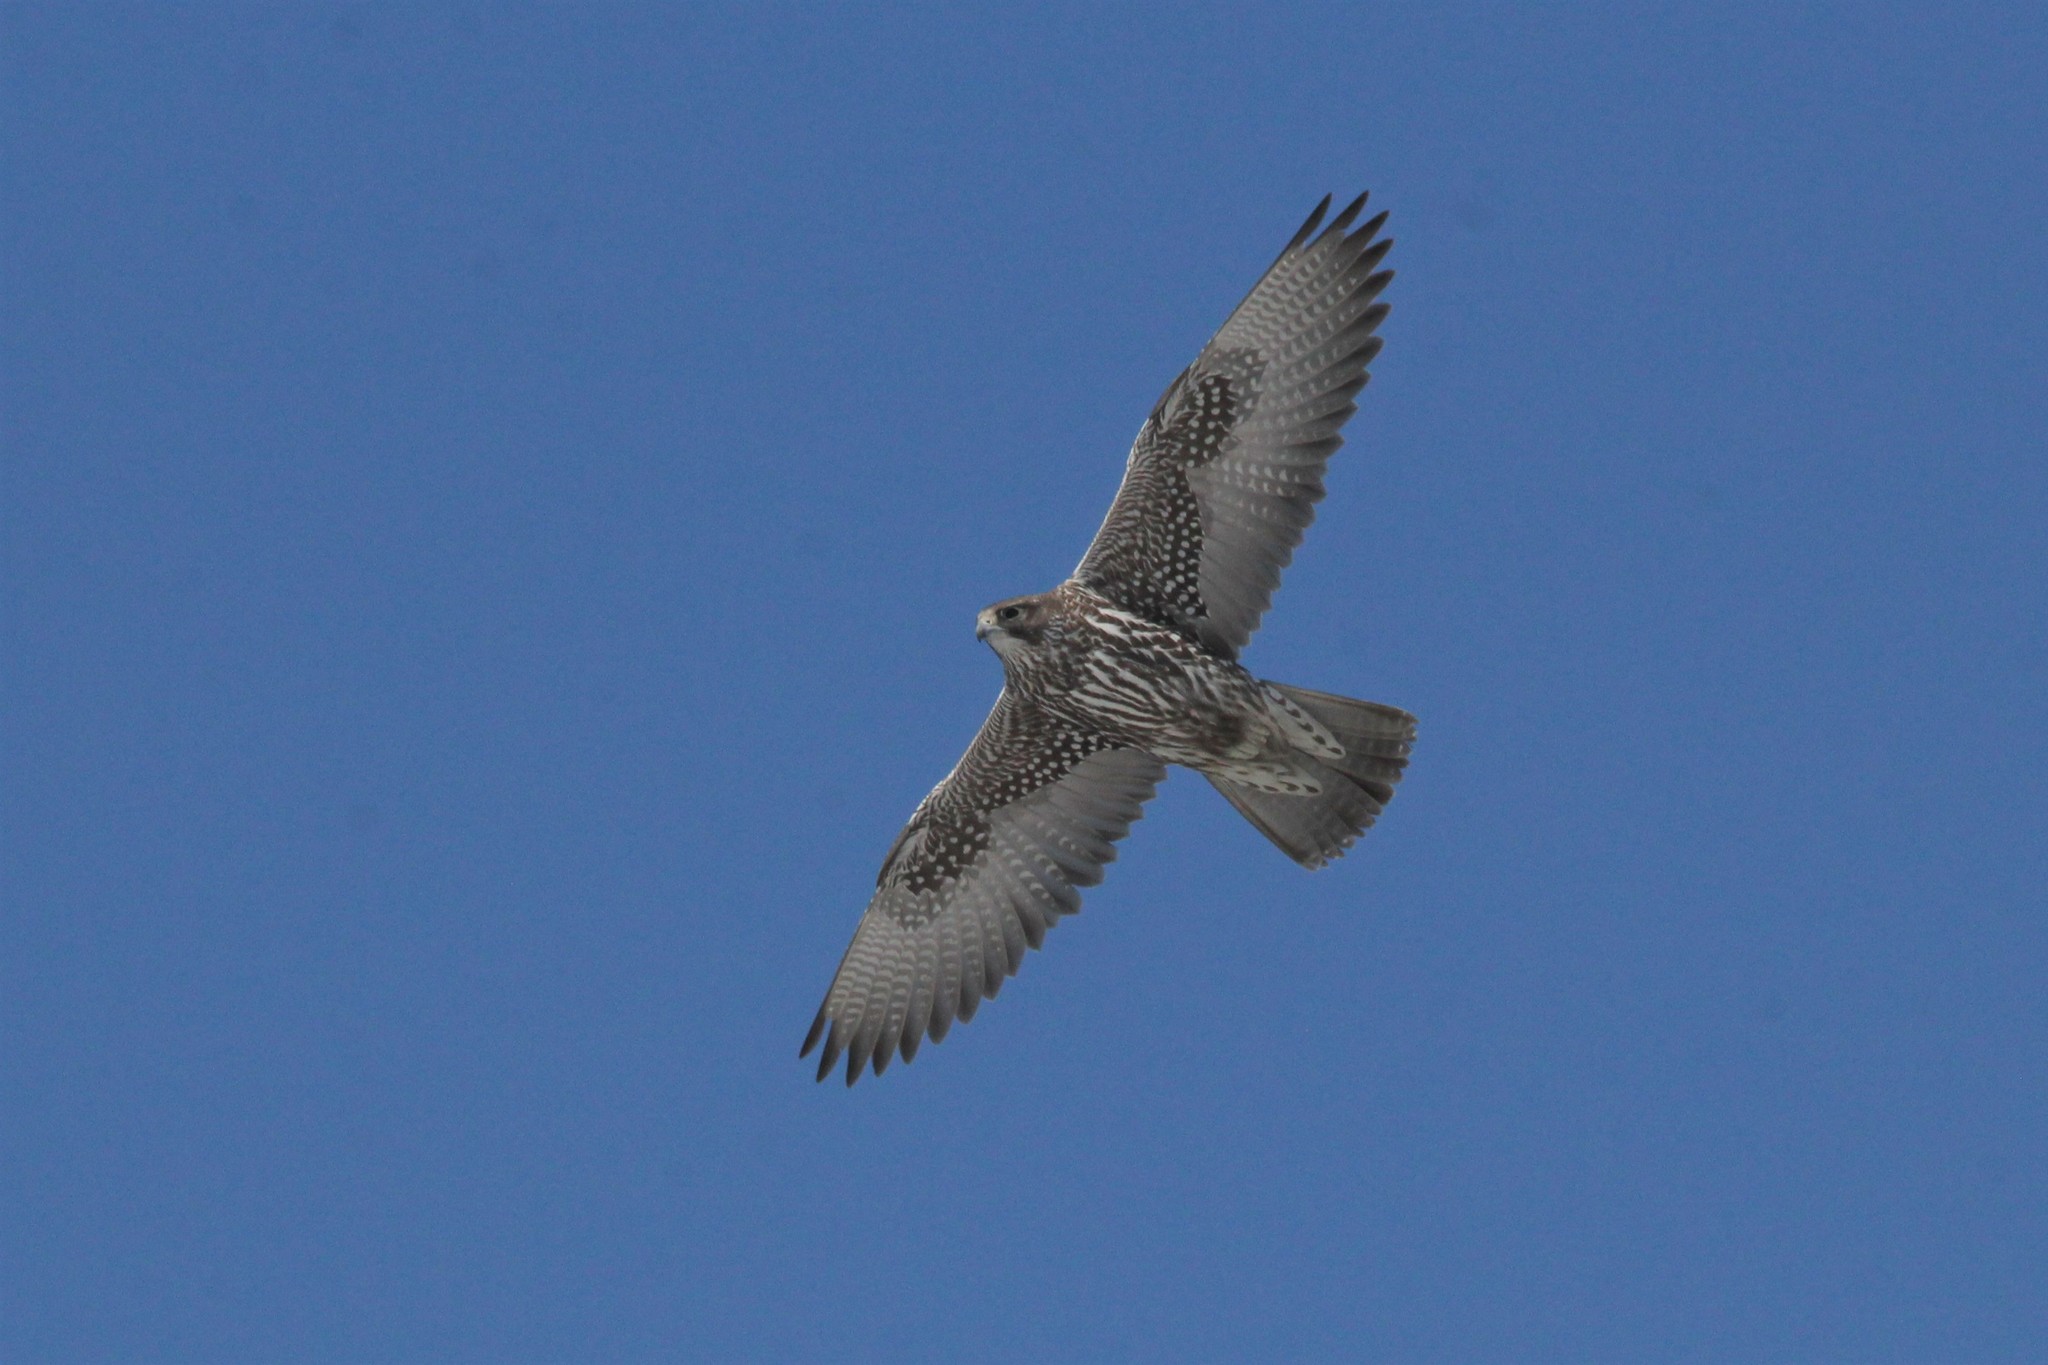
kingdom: Animalia
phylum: Chordata
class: Aves
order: Falconiformes
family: Falconidae
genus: Falco
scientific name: Falco rusticolus
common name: Gyrfalcon
